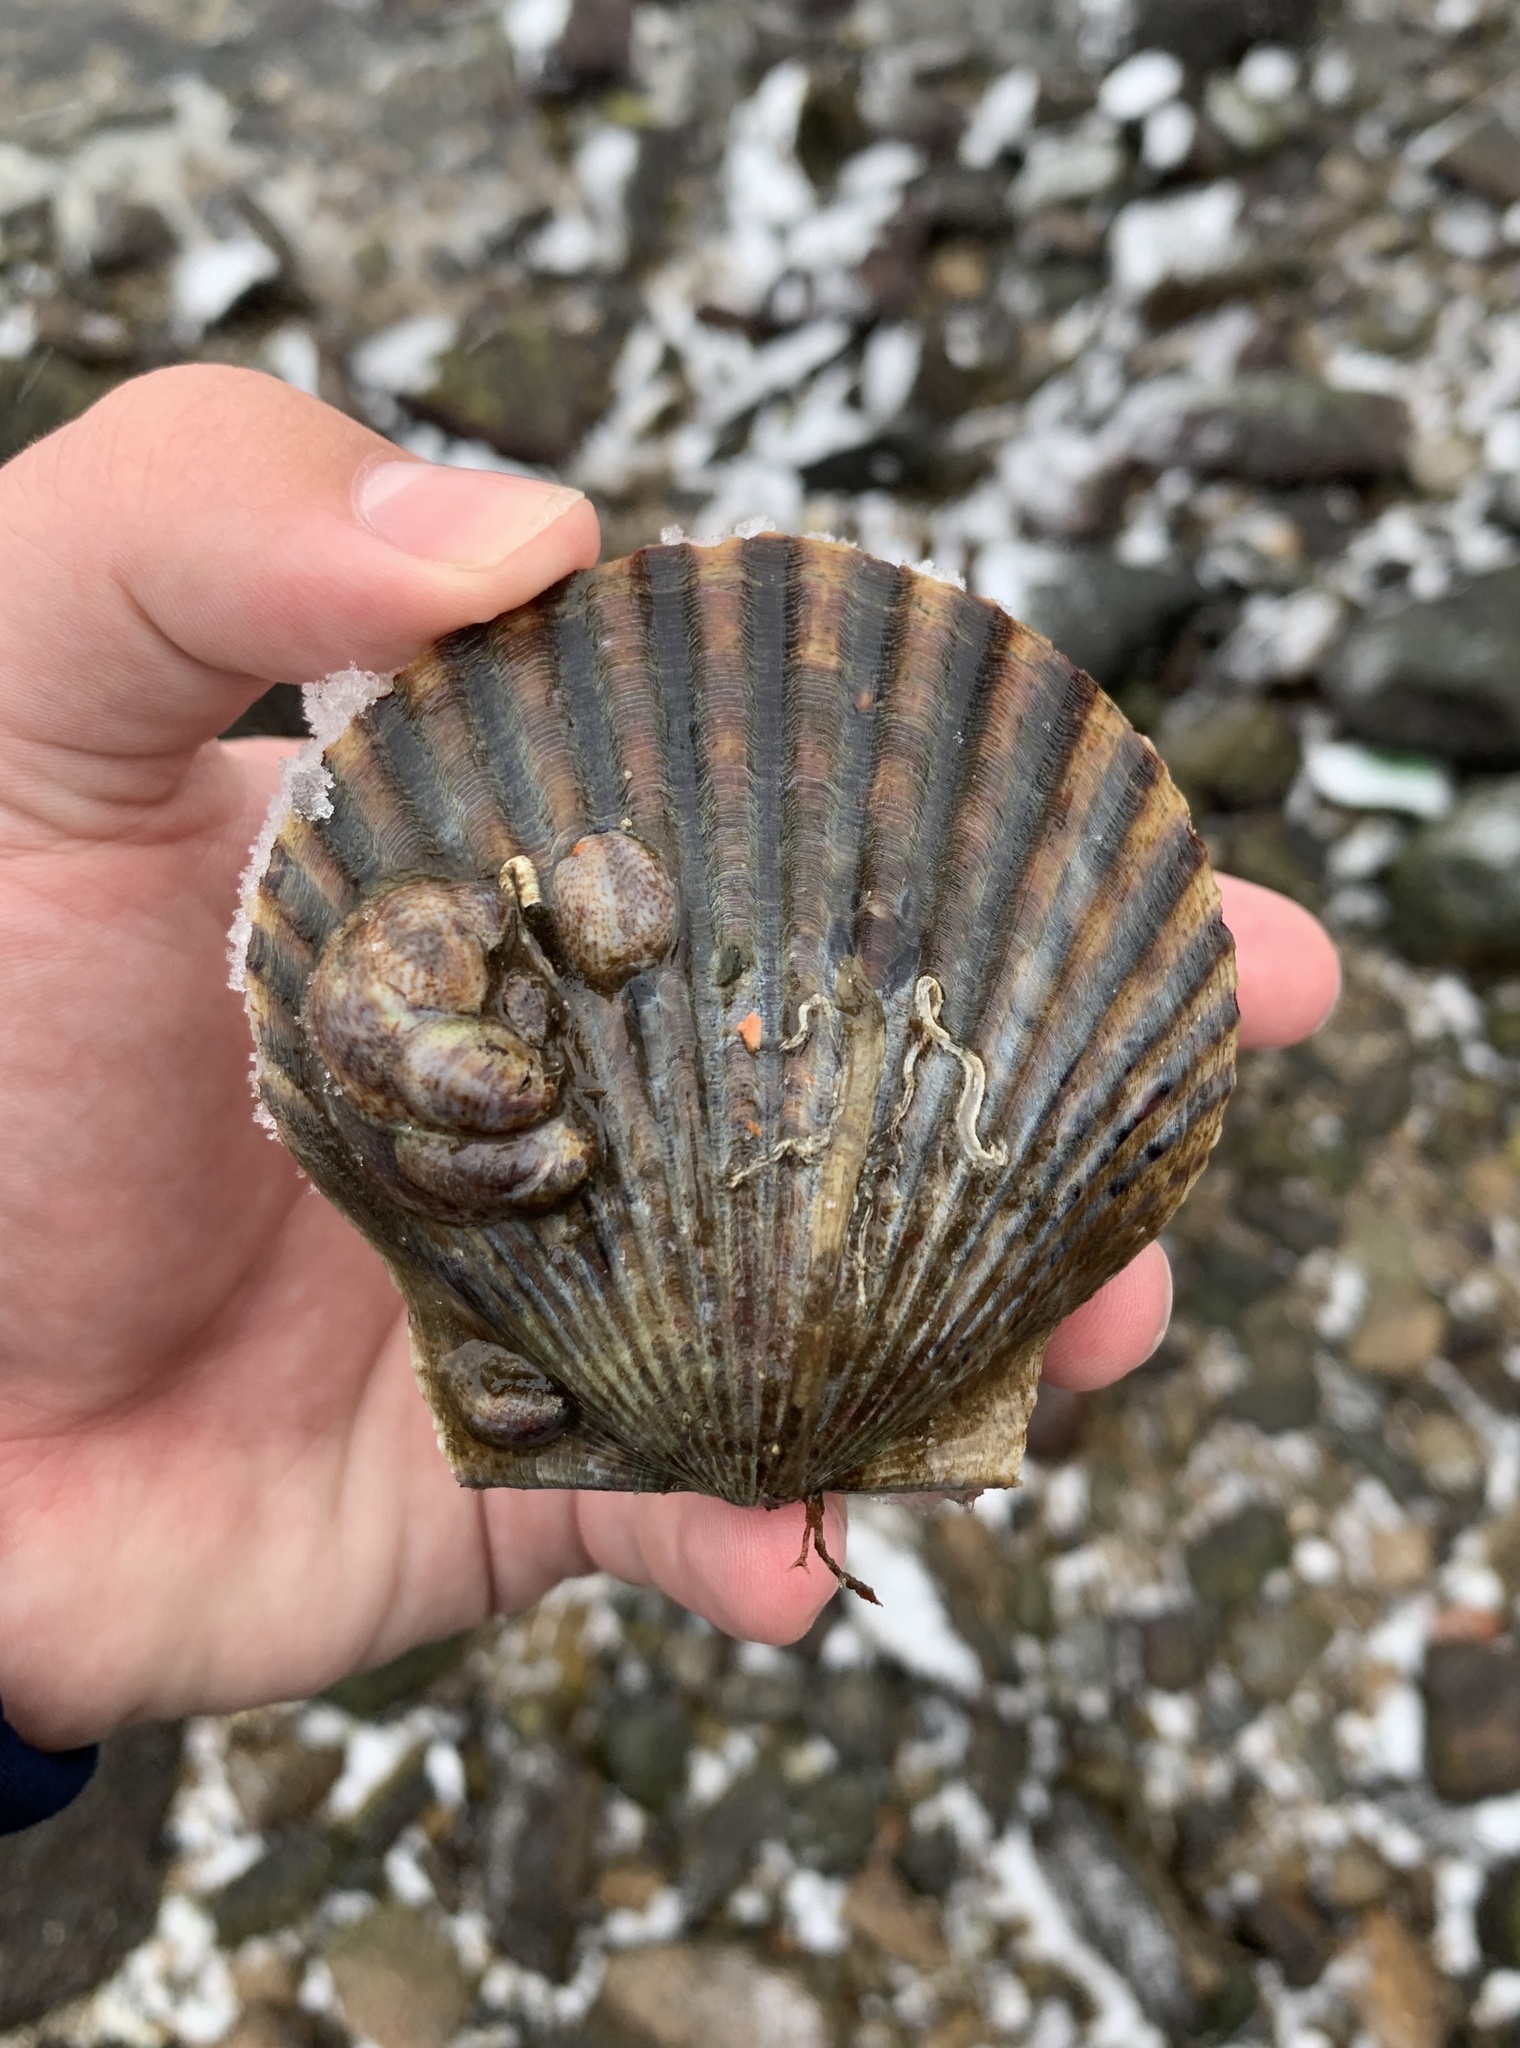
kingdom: Animalia
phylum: Mollusca
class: Bivalvia
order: Pectinida
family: Pectinidae
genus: Argopecten
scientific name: Argopecten irradians
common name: Atlantic bay scallop
